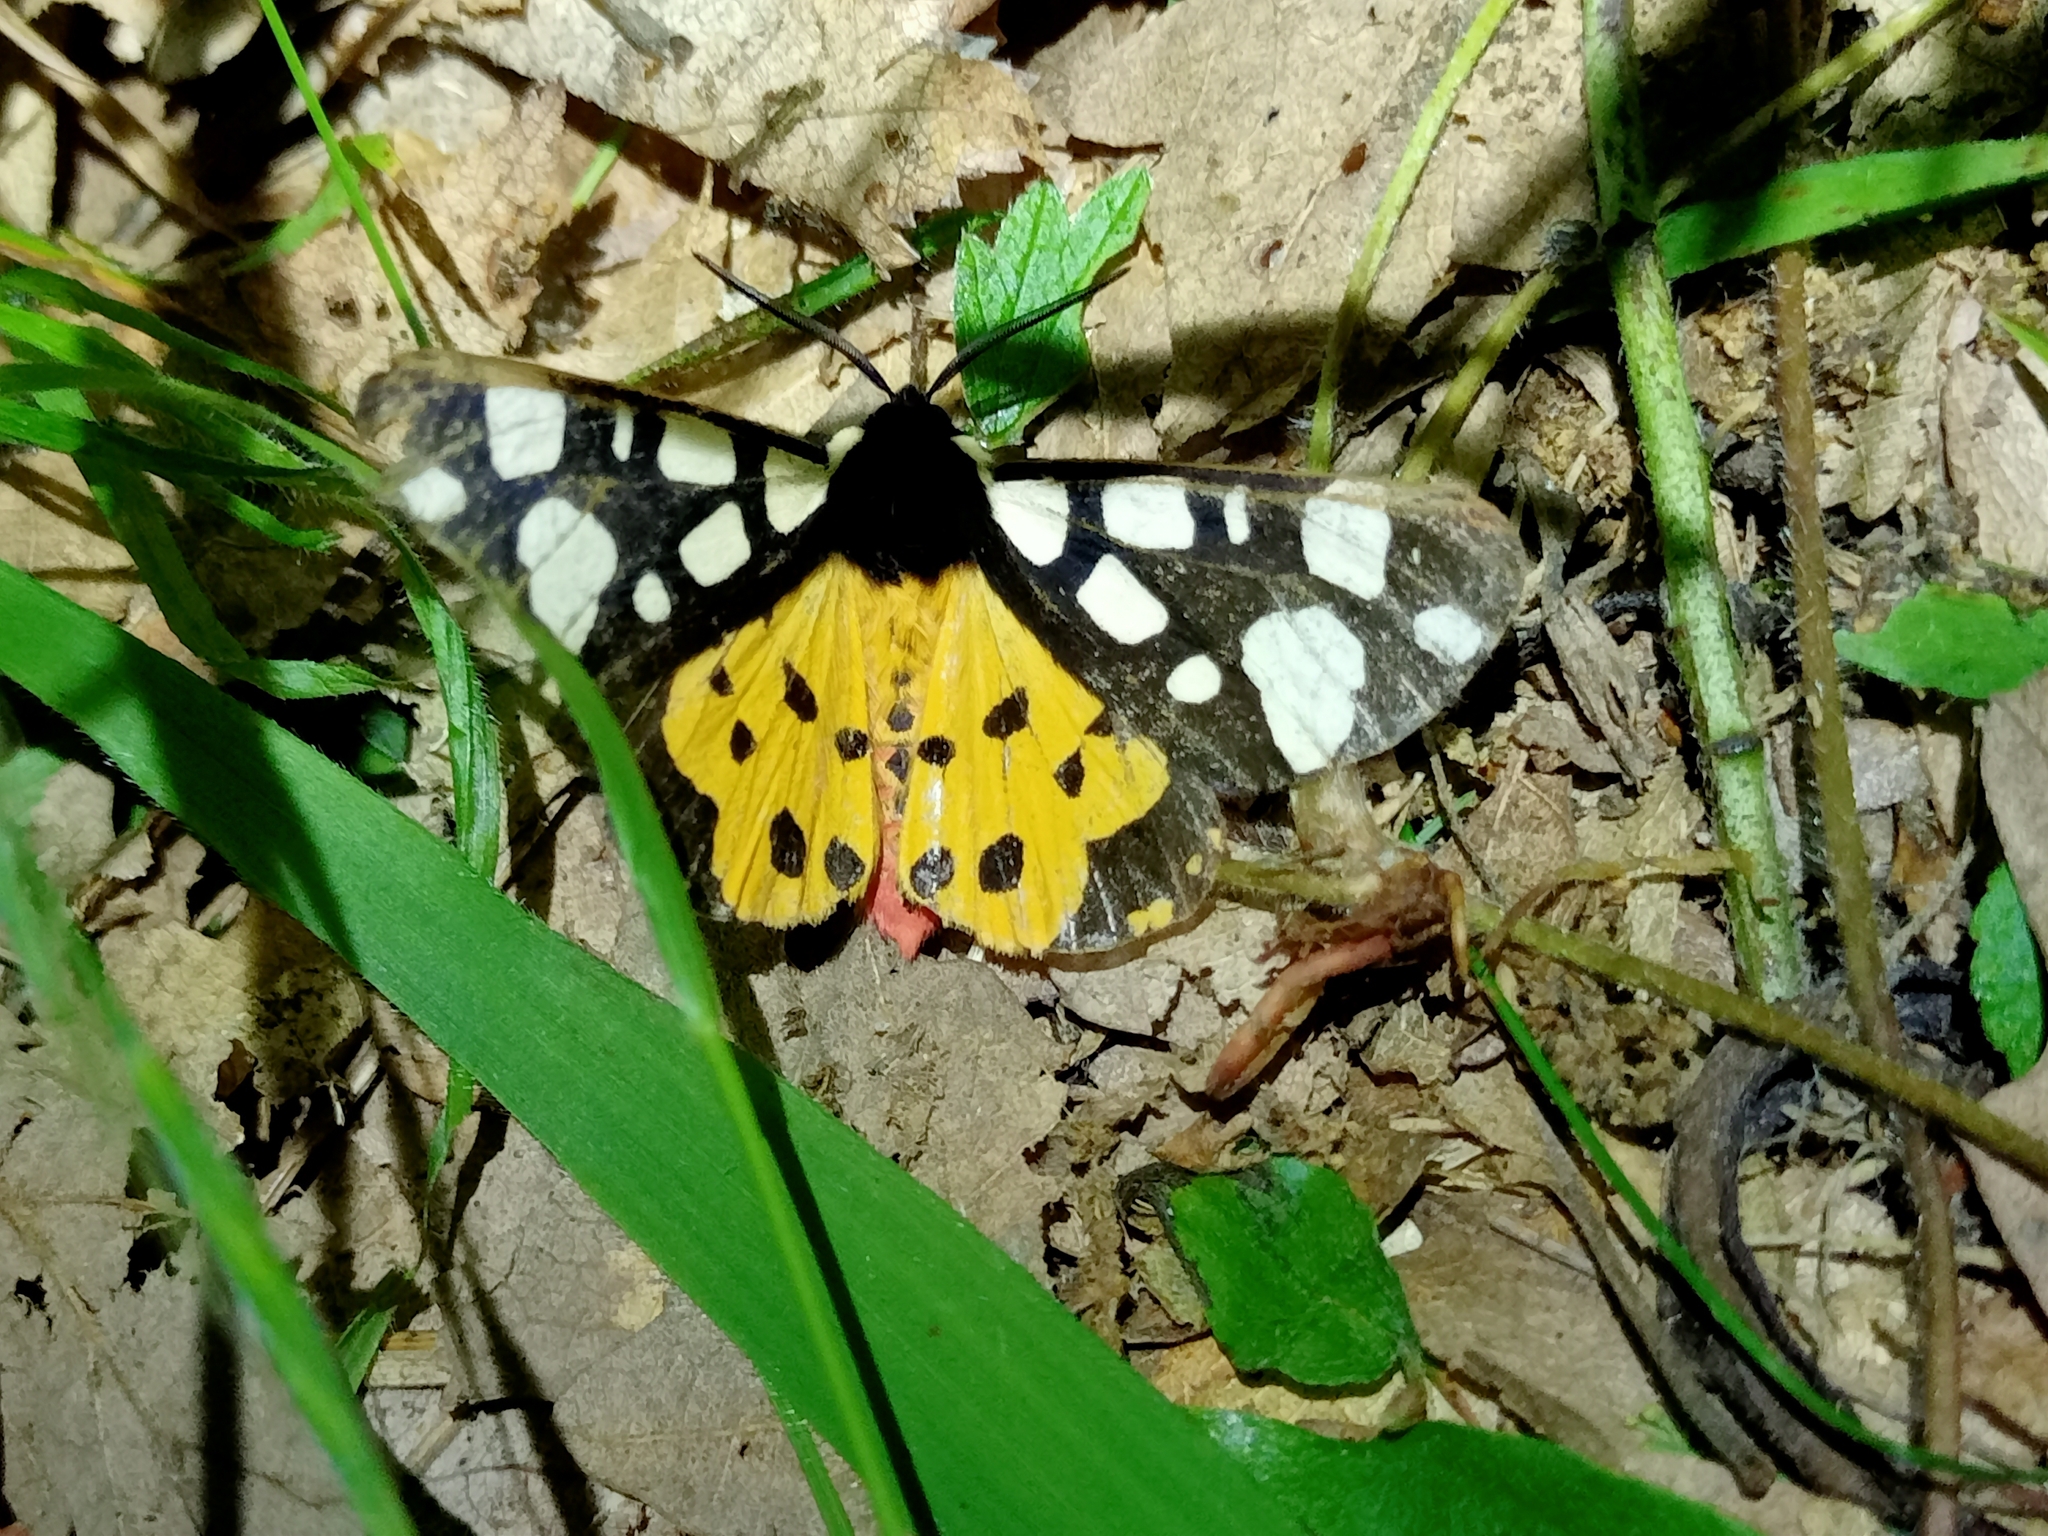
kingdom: Animalia
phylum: Arthropoda
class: Insecta
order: Lepidoptera
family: Erebidae
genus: Epicallia
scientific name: Epicallia villica
